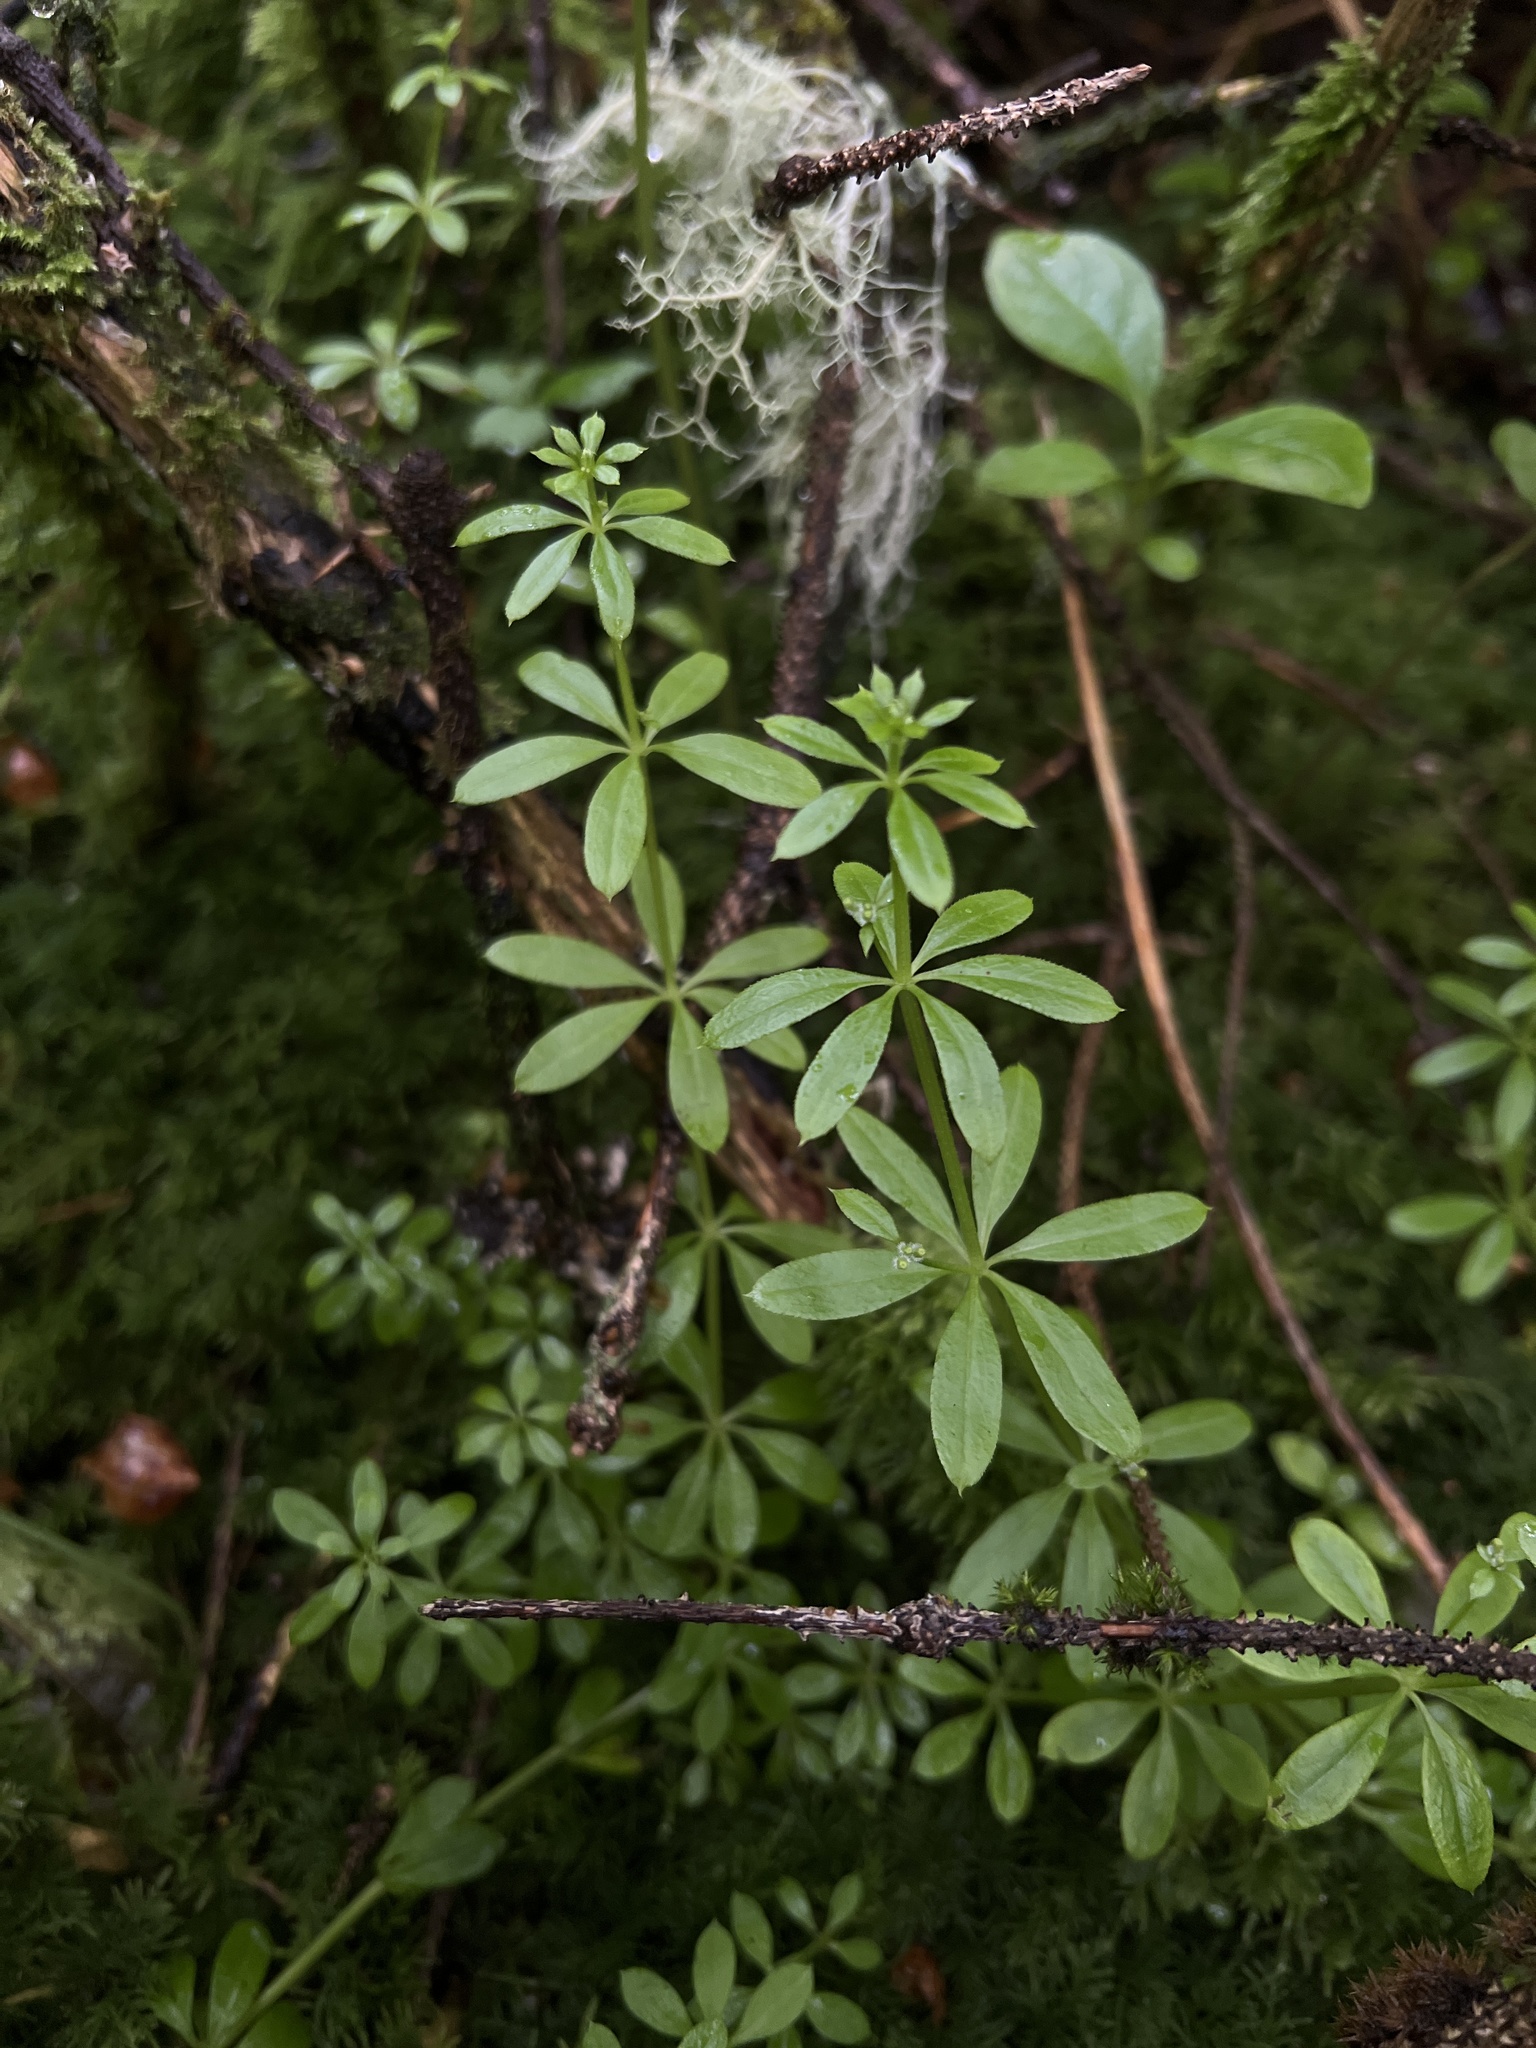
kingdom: Plantae
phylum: Tracheophyta
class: Magnoliopsida
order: Gentianales
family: Rubiaceae
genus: Galium
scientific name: Galium triflorum
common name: Fragrant bedstraw
